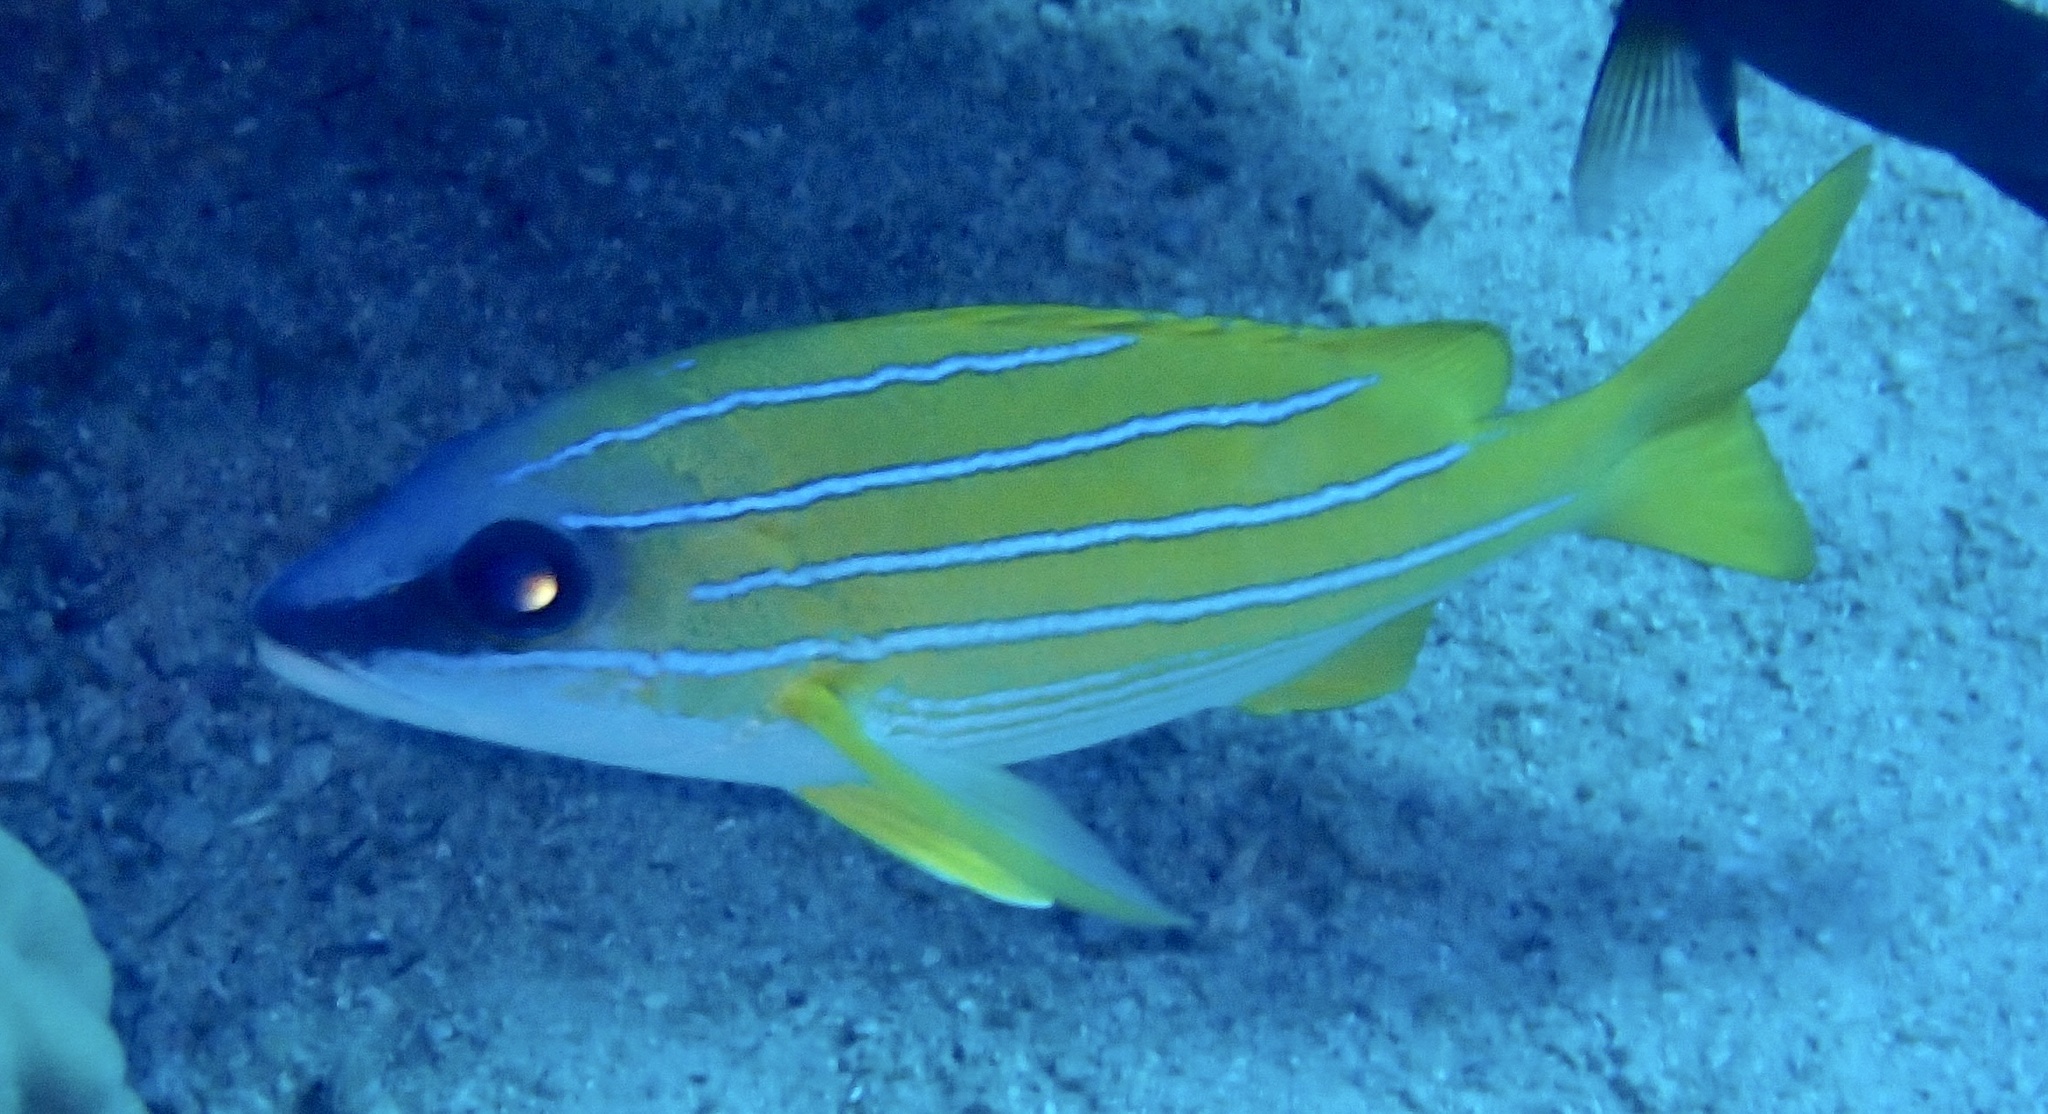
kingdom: Animalia
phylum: Chordata
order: Perciformes
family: Lutjanidae
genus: Lutjanus
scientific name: Lutjanus kasmira
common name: Common bluestripe snapper
